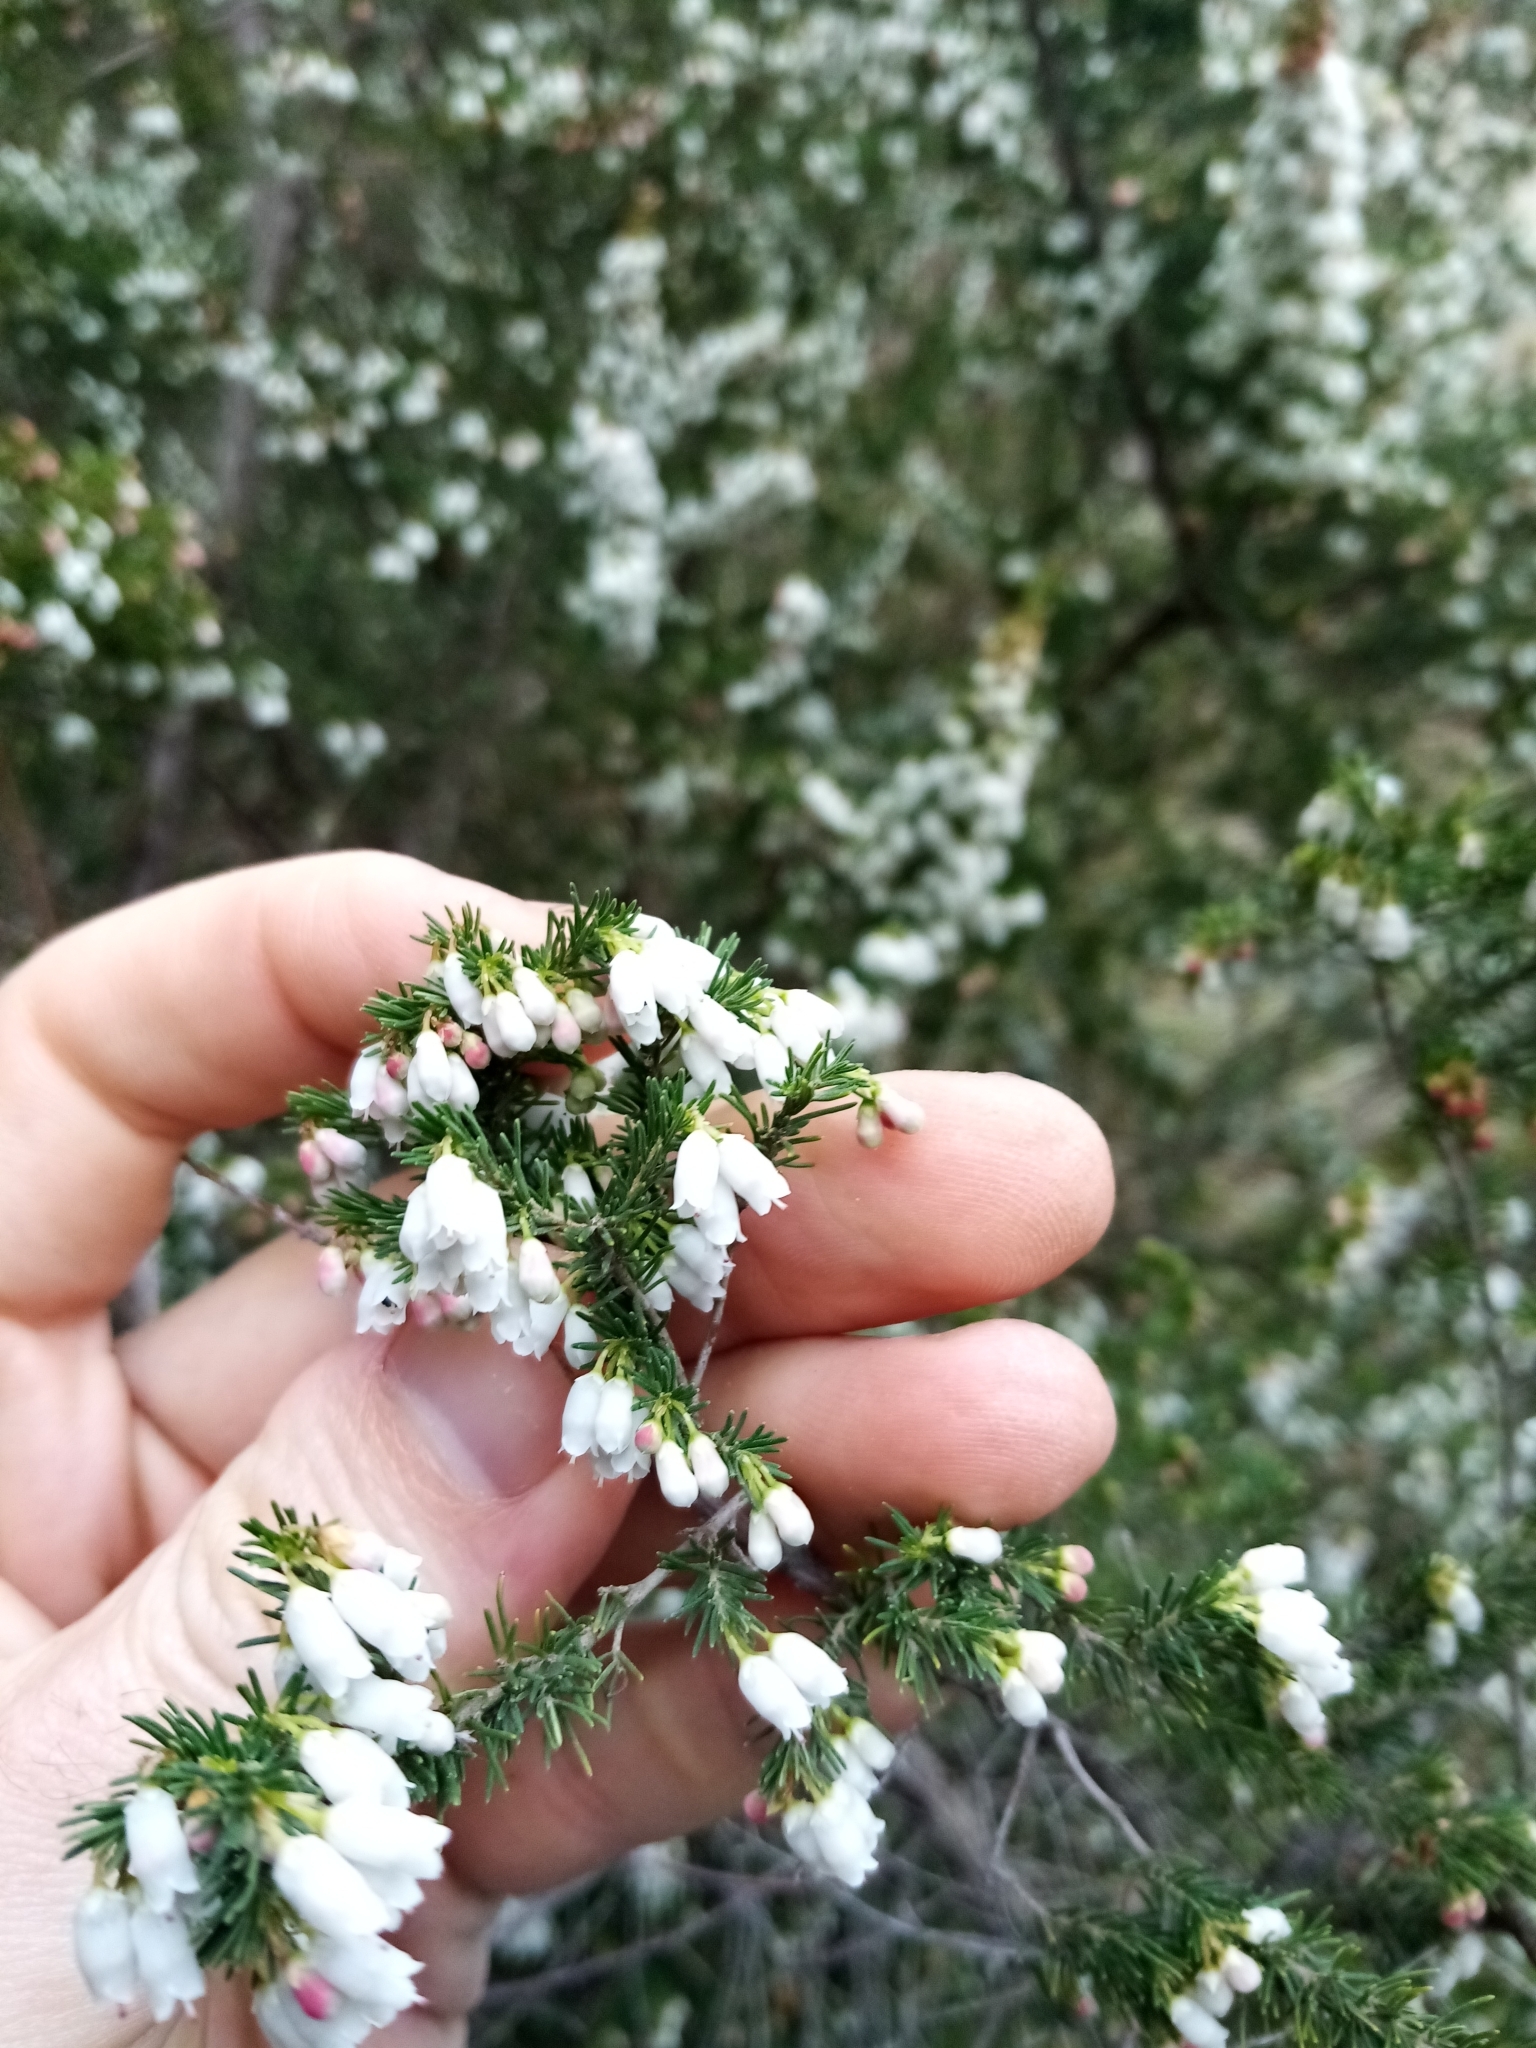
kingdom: Plantae
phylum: Tracheophyta
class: Magnoliopsida
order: Ericales
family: Ericaceae
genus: Erica
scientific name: Erica lusitanica
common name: Spanish heath
